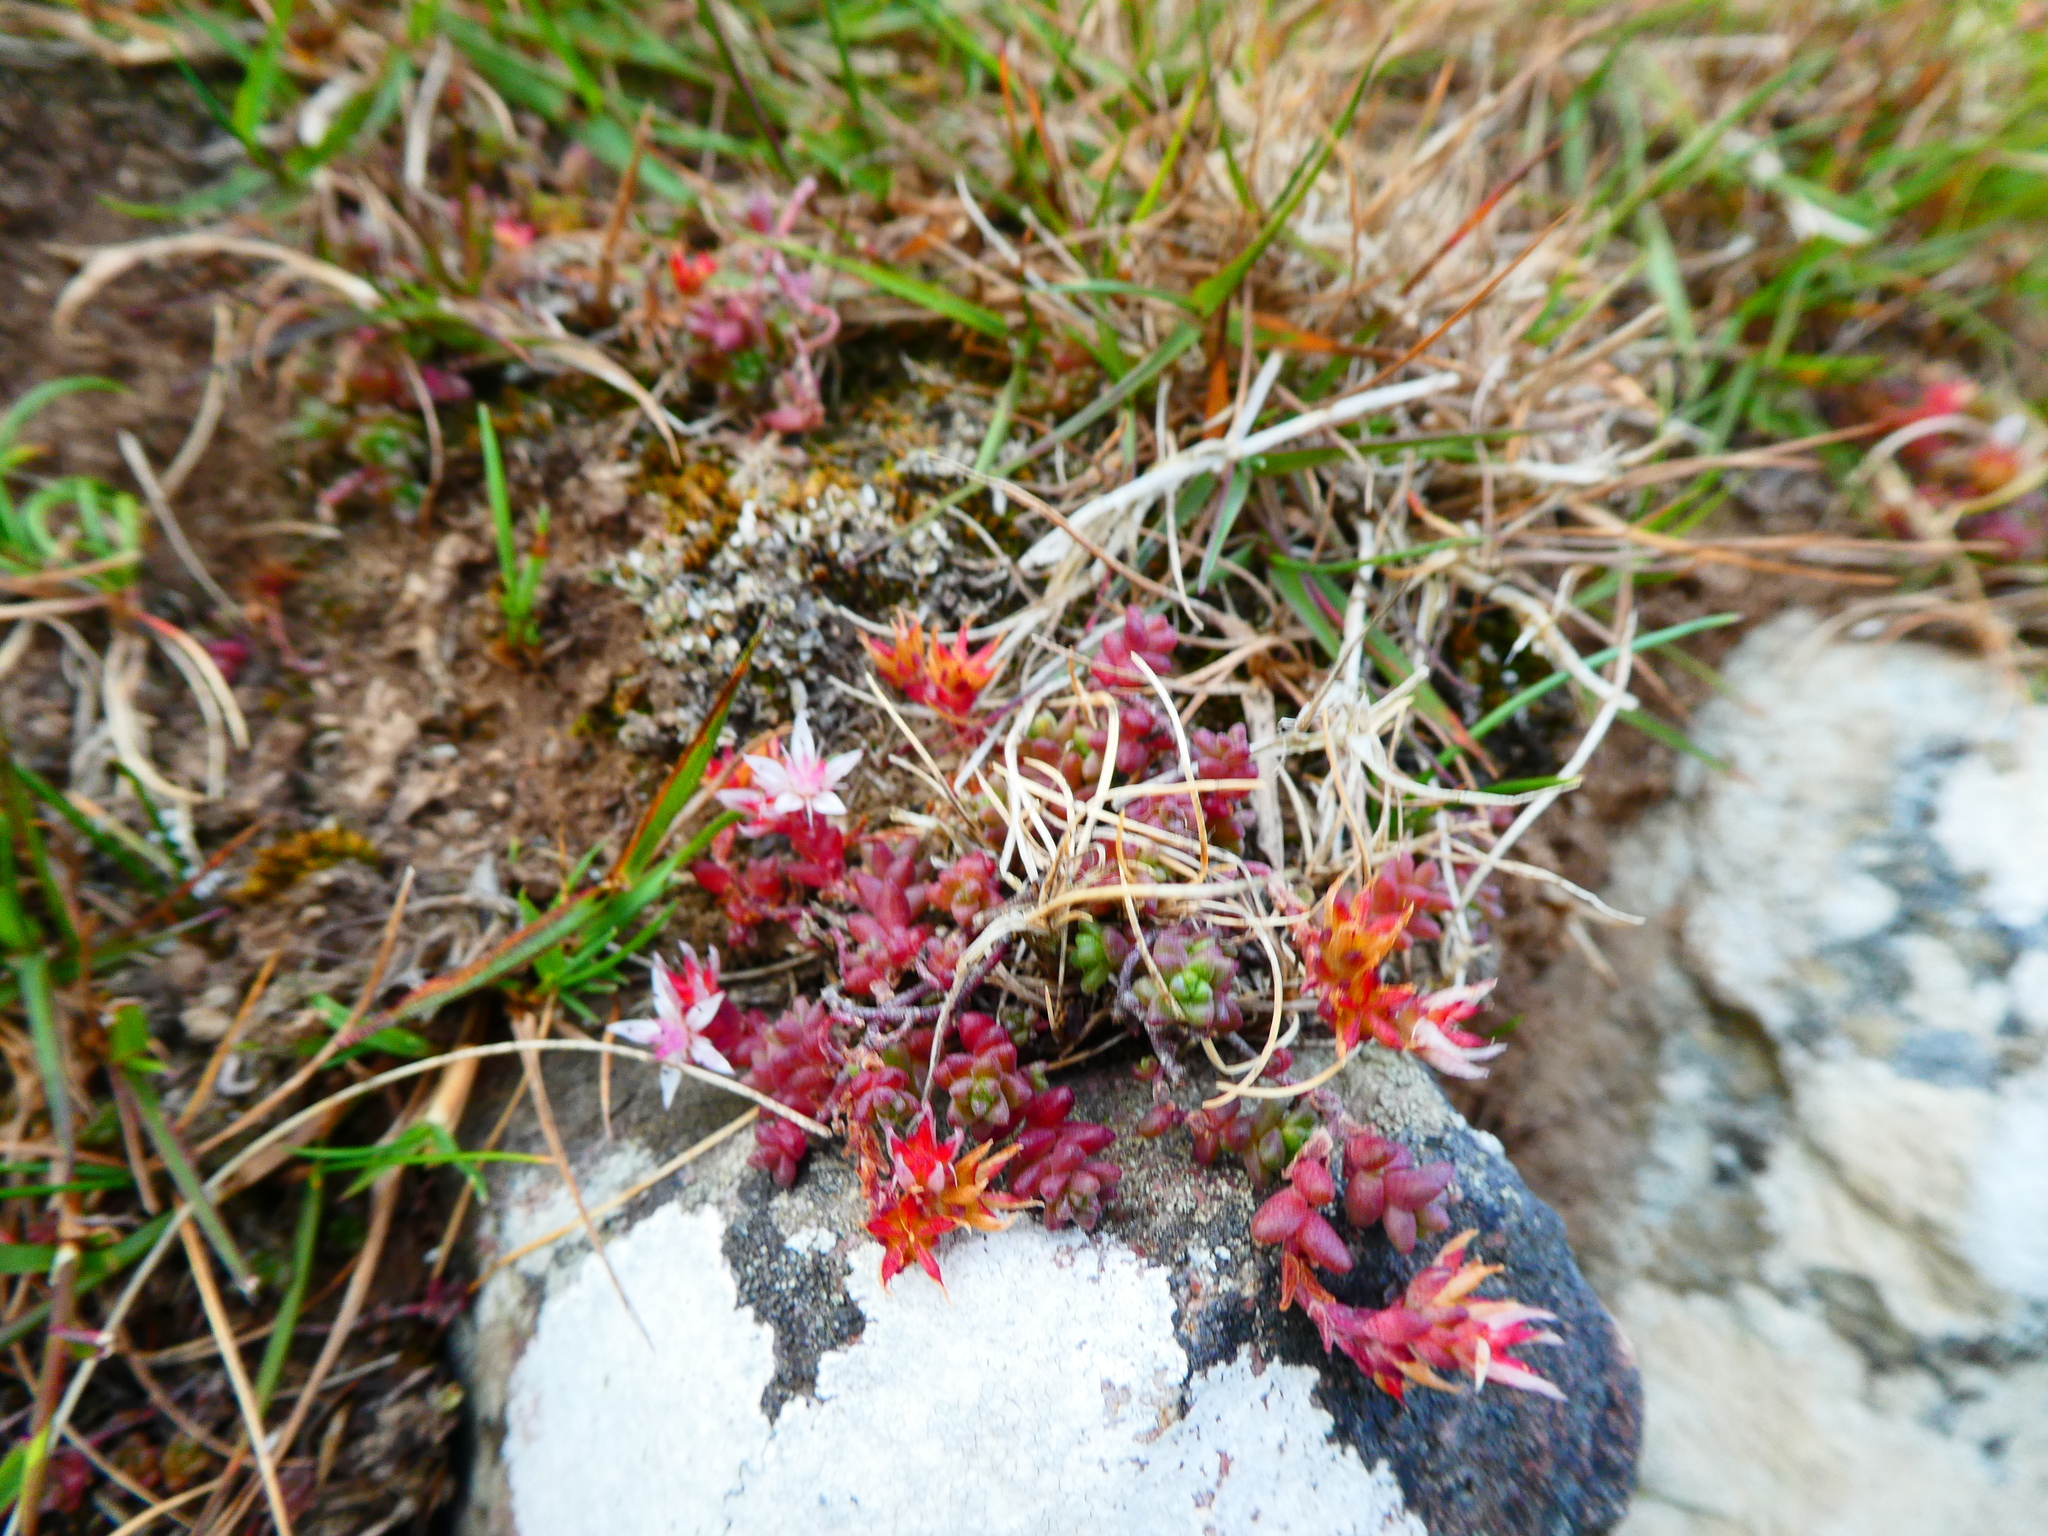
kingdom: Plantae
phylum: Tracheophyta
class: Magnoliopsida
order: Saxifragales
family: Crassulaceae
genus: Sedum
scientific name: Sedum anglicum
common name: English stonecrop
